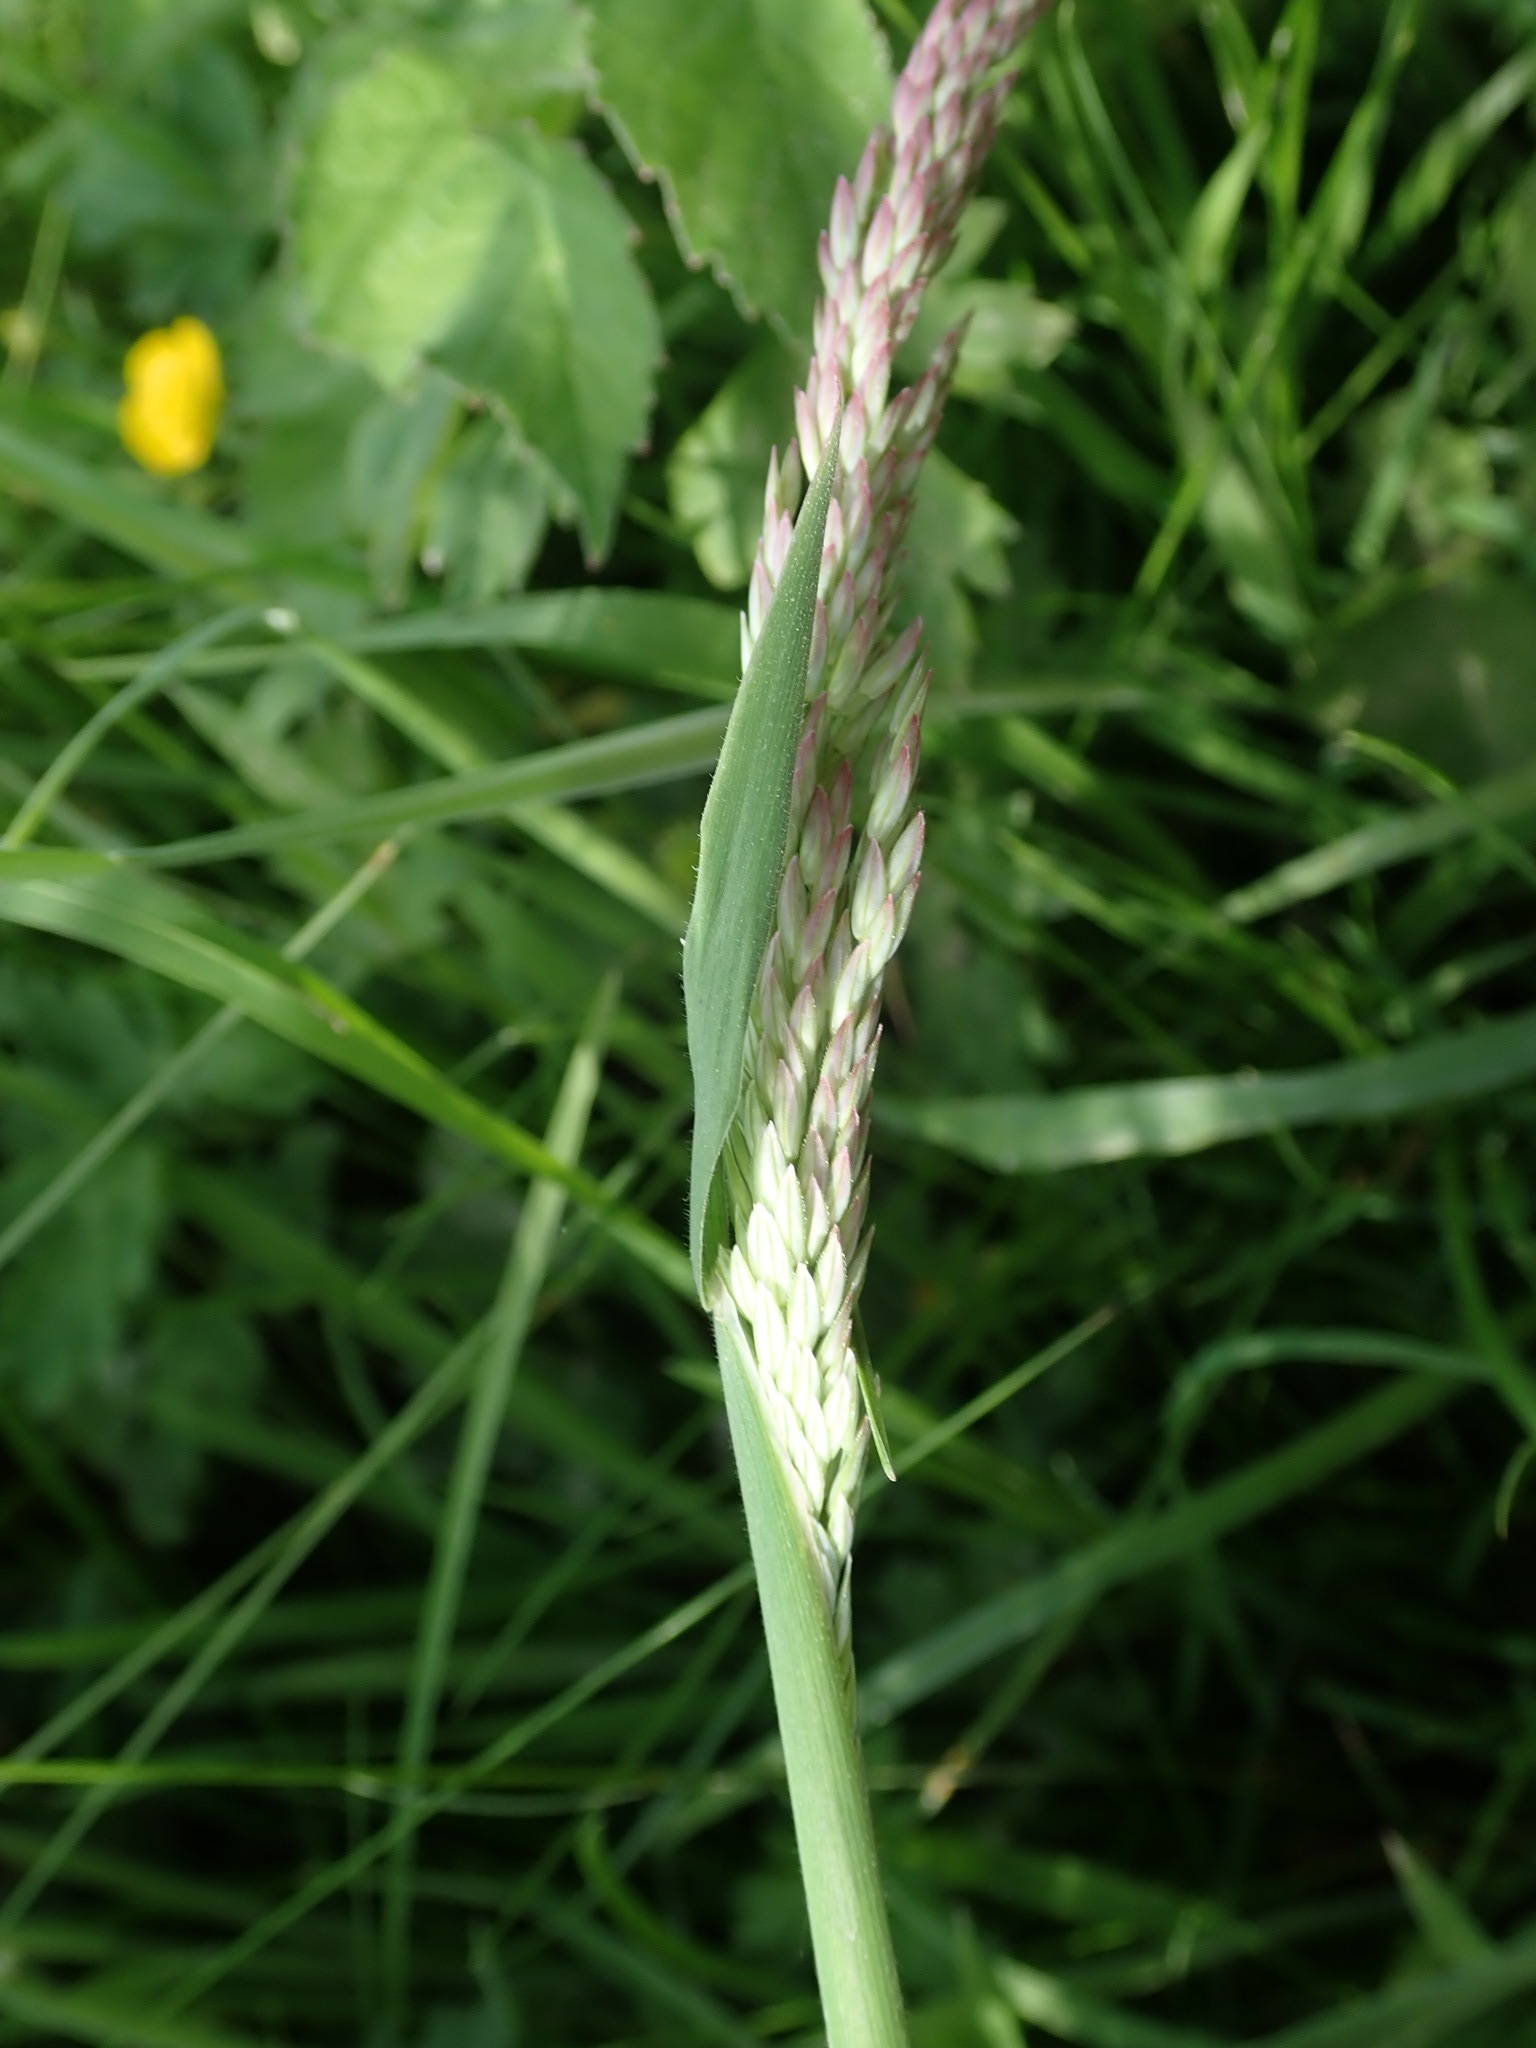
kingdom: Plantae
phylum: Tracheophyta
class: Liliopsida
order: Poales
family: Poaceae
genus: Holcus
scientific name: Holcus lanatus
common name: Yorkshire-fog
